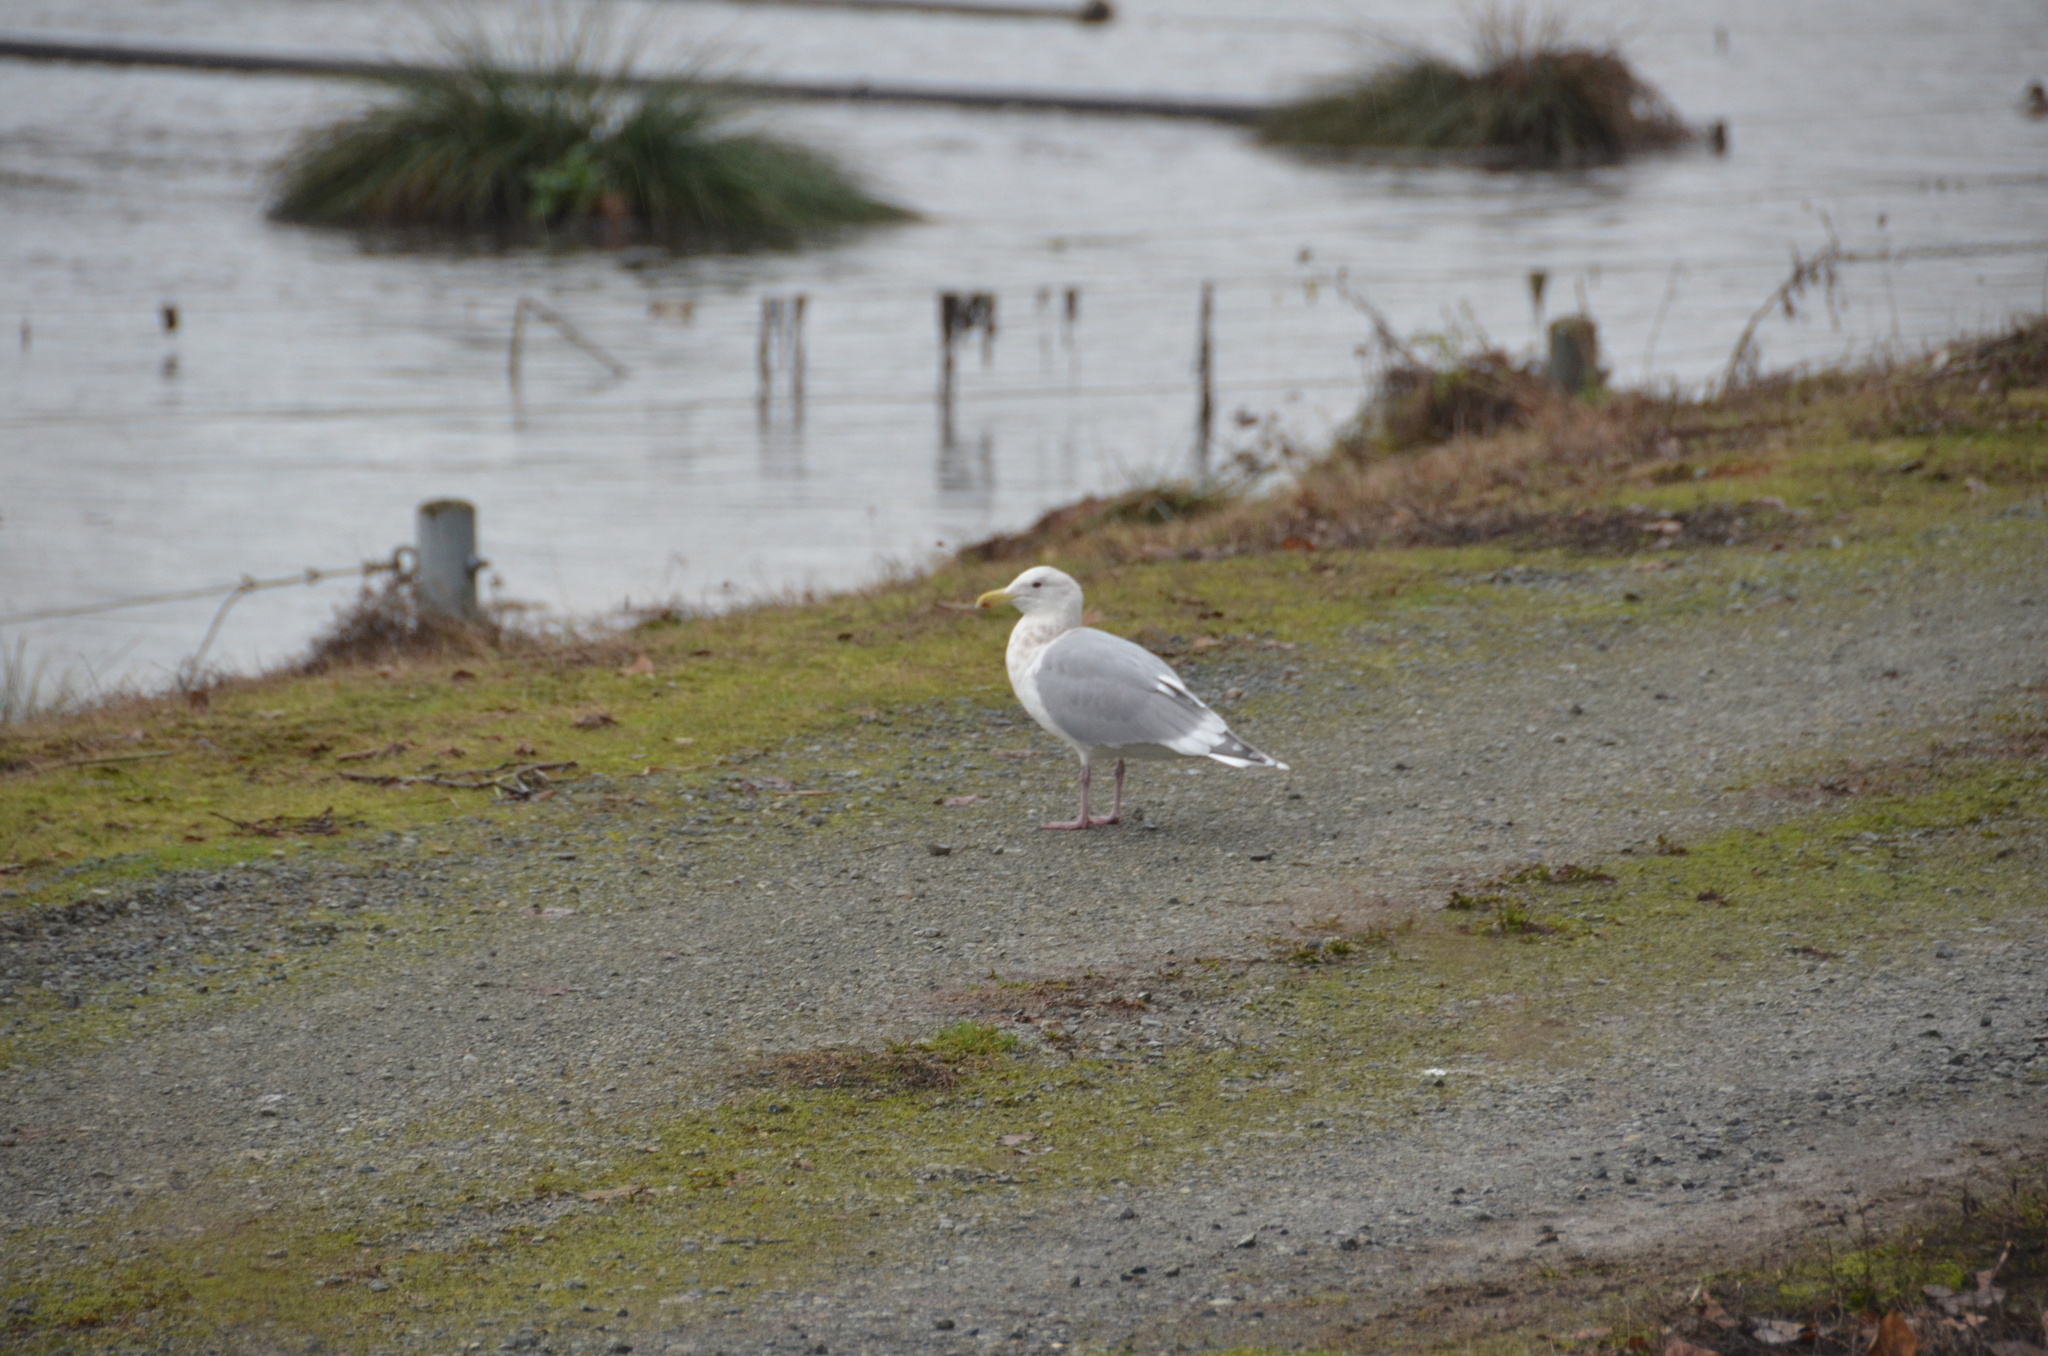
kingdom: Animalia
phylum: Chordata
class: Aves
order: Charadriiformes
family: Laridae
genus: Larus
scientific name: Larus glaucescens
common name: Glaucous-winged gull
